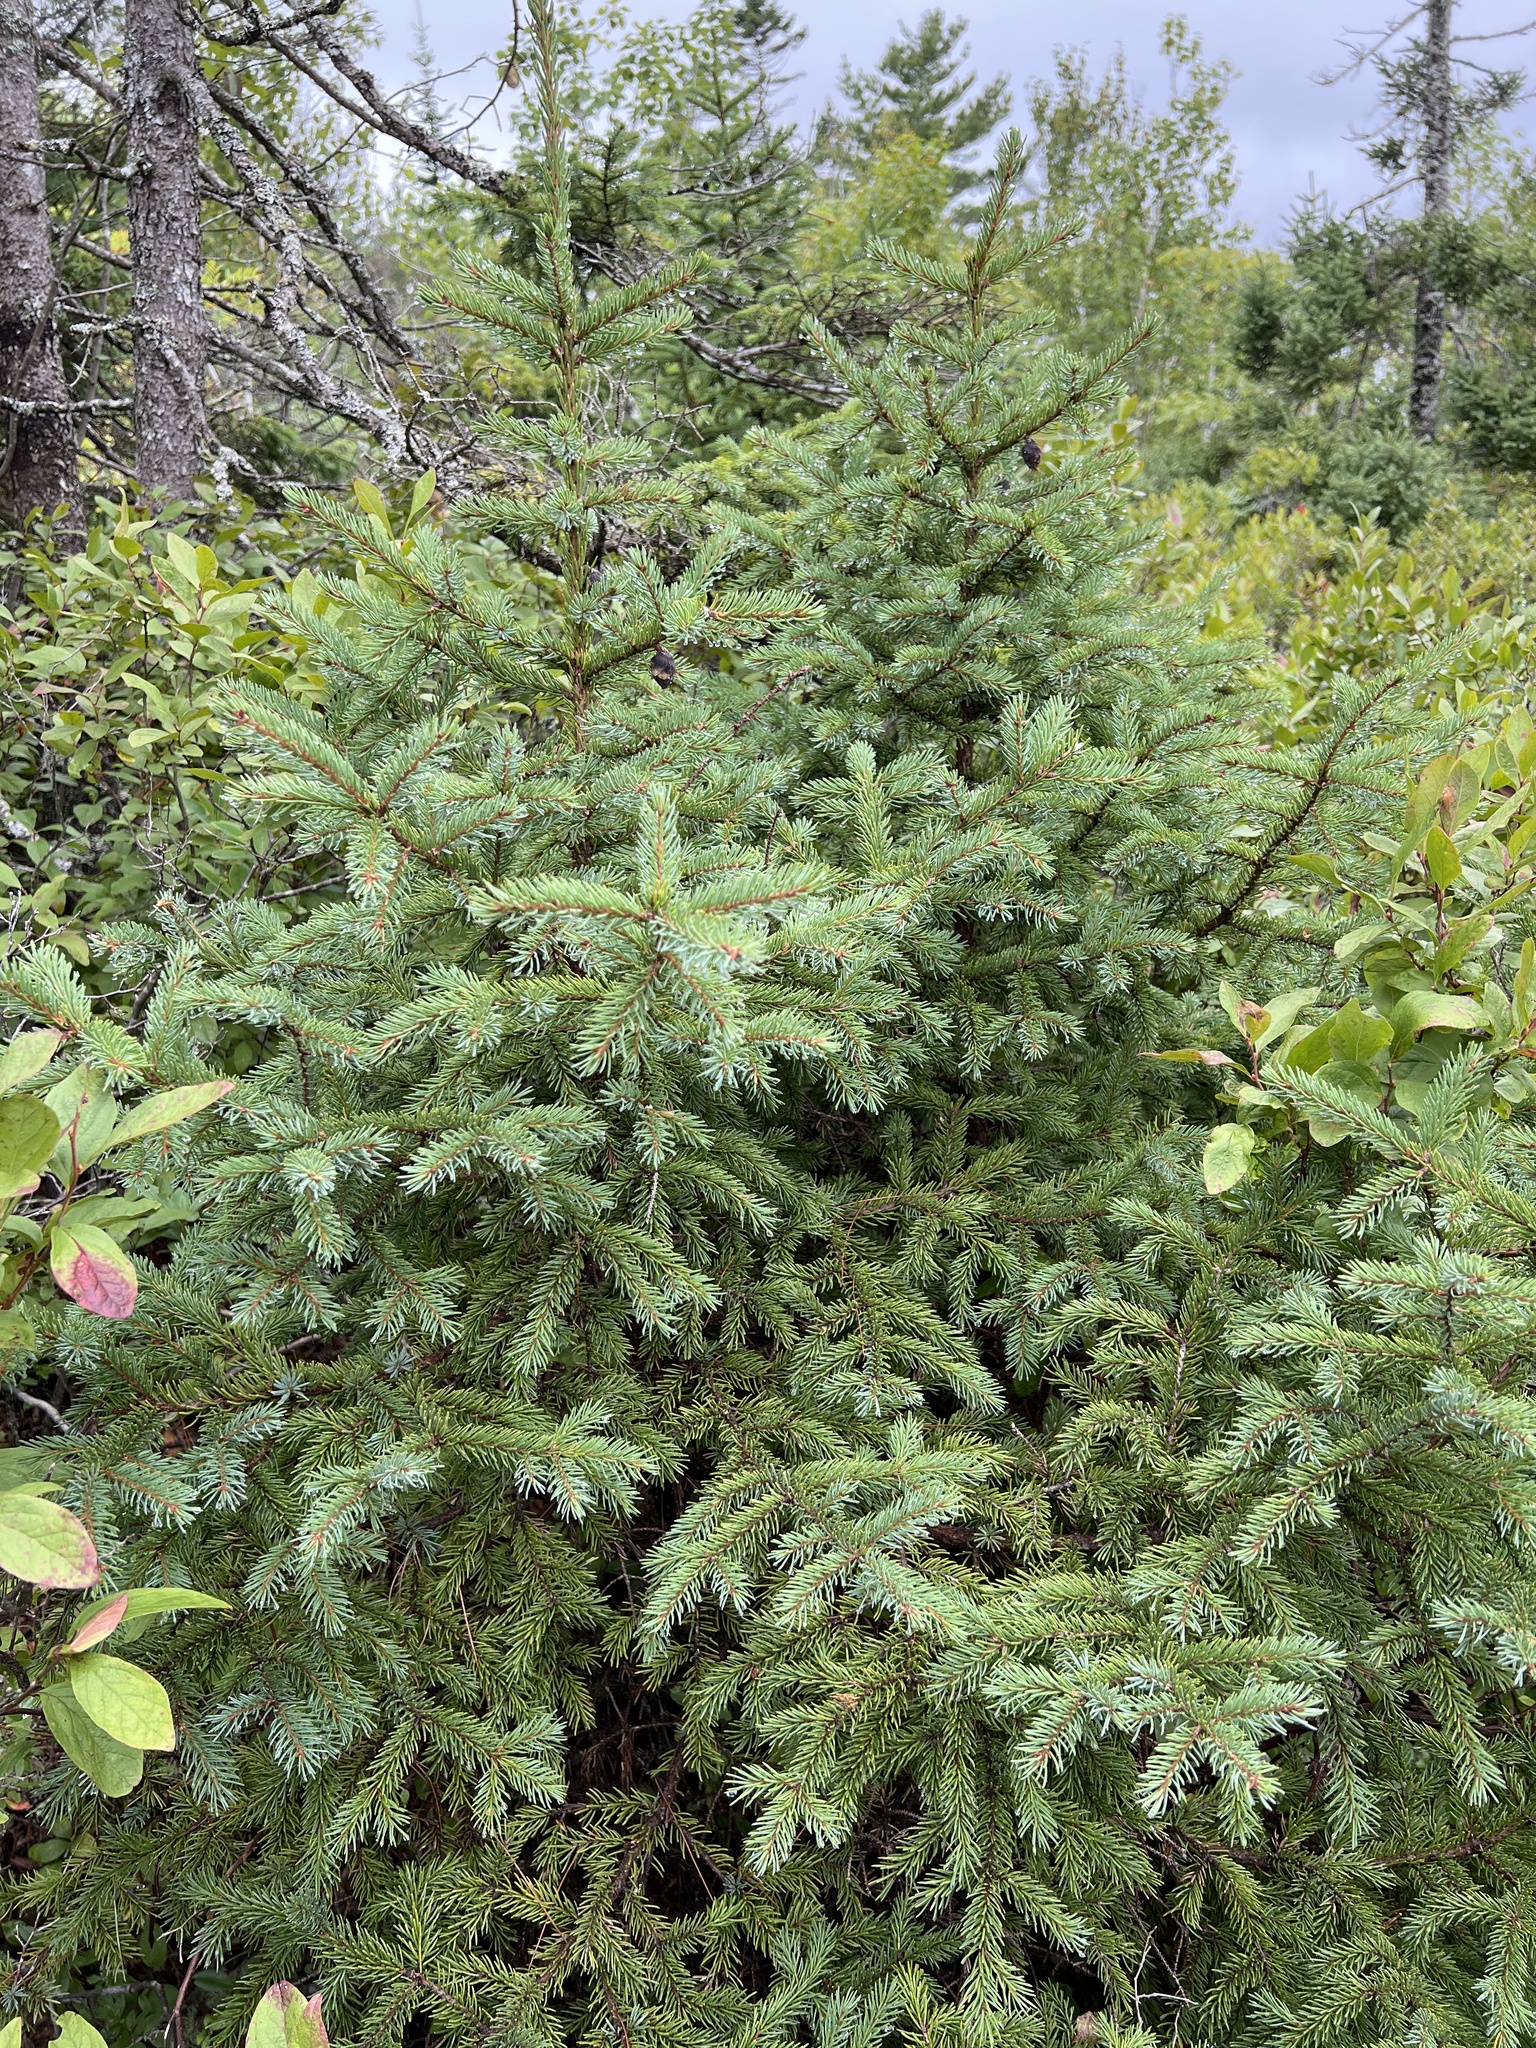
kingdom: Plantae
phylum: Tracheophyta
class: Pinopsida
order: Pinales
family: Pinaceae
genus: Picea
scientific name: Picea mariana
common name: Black spruce
